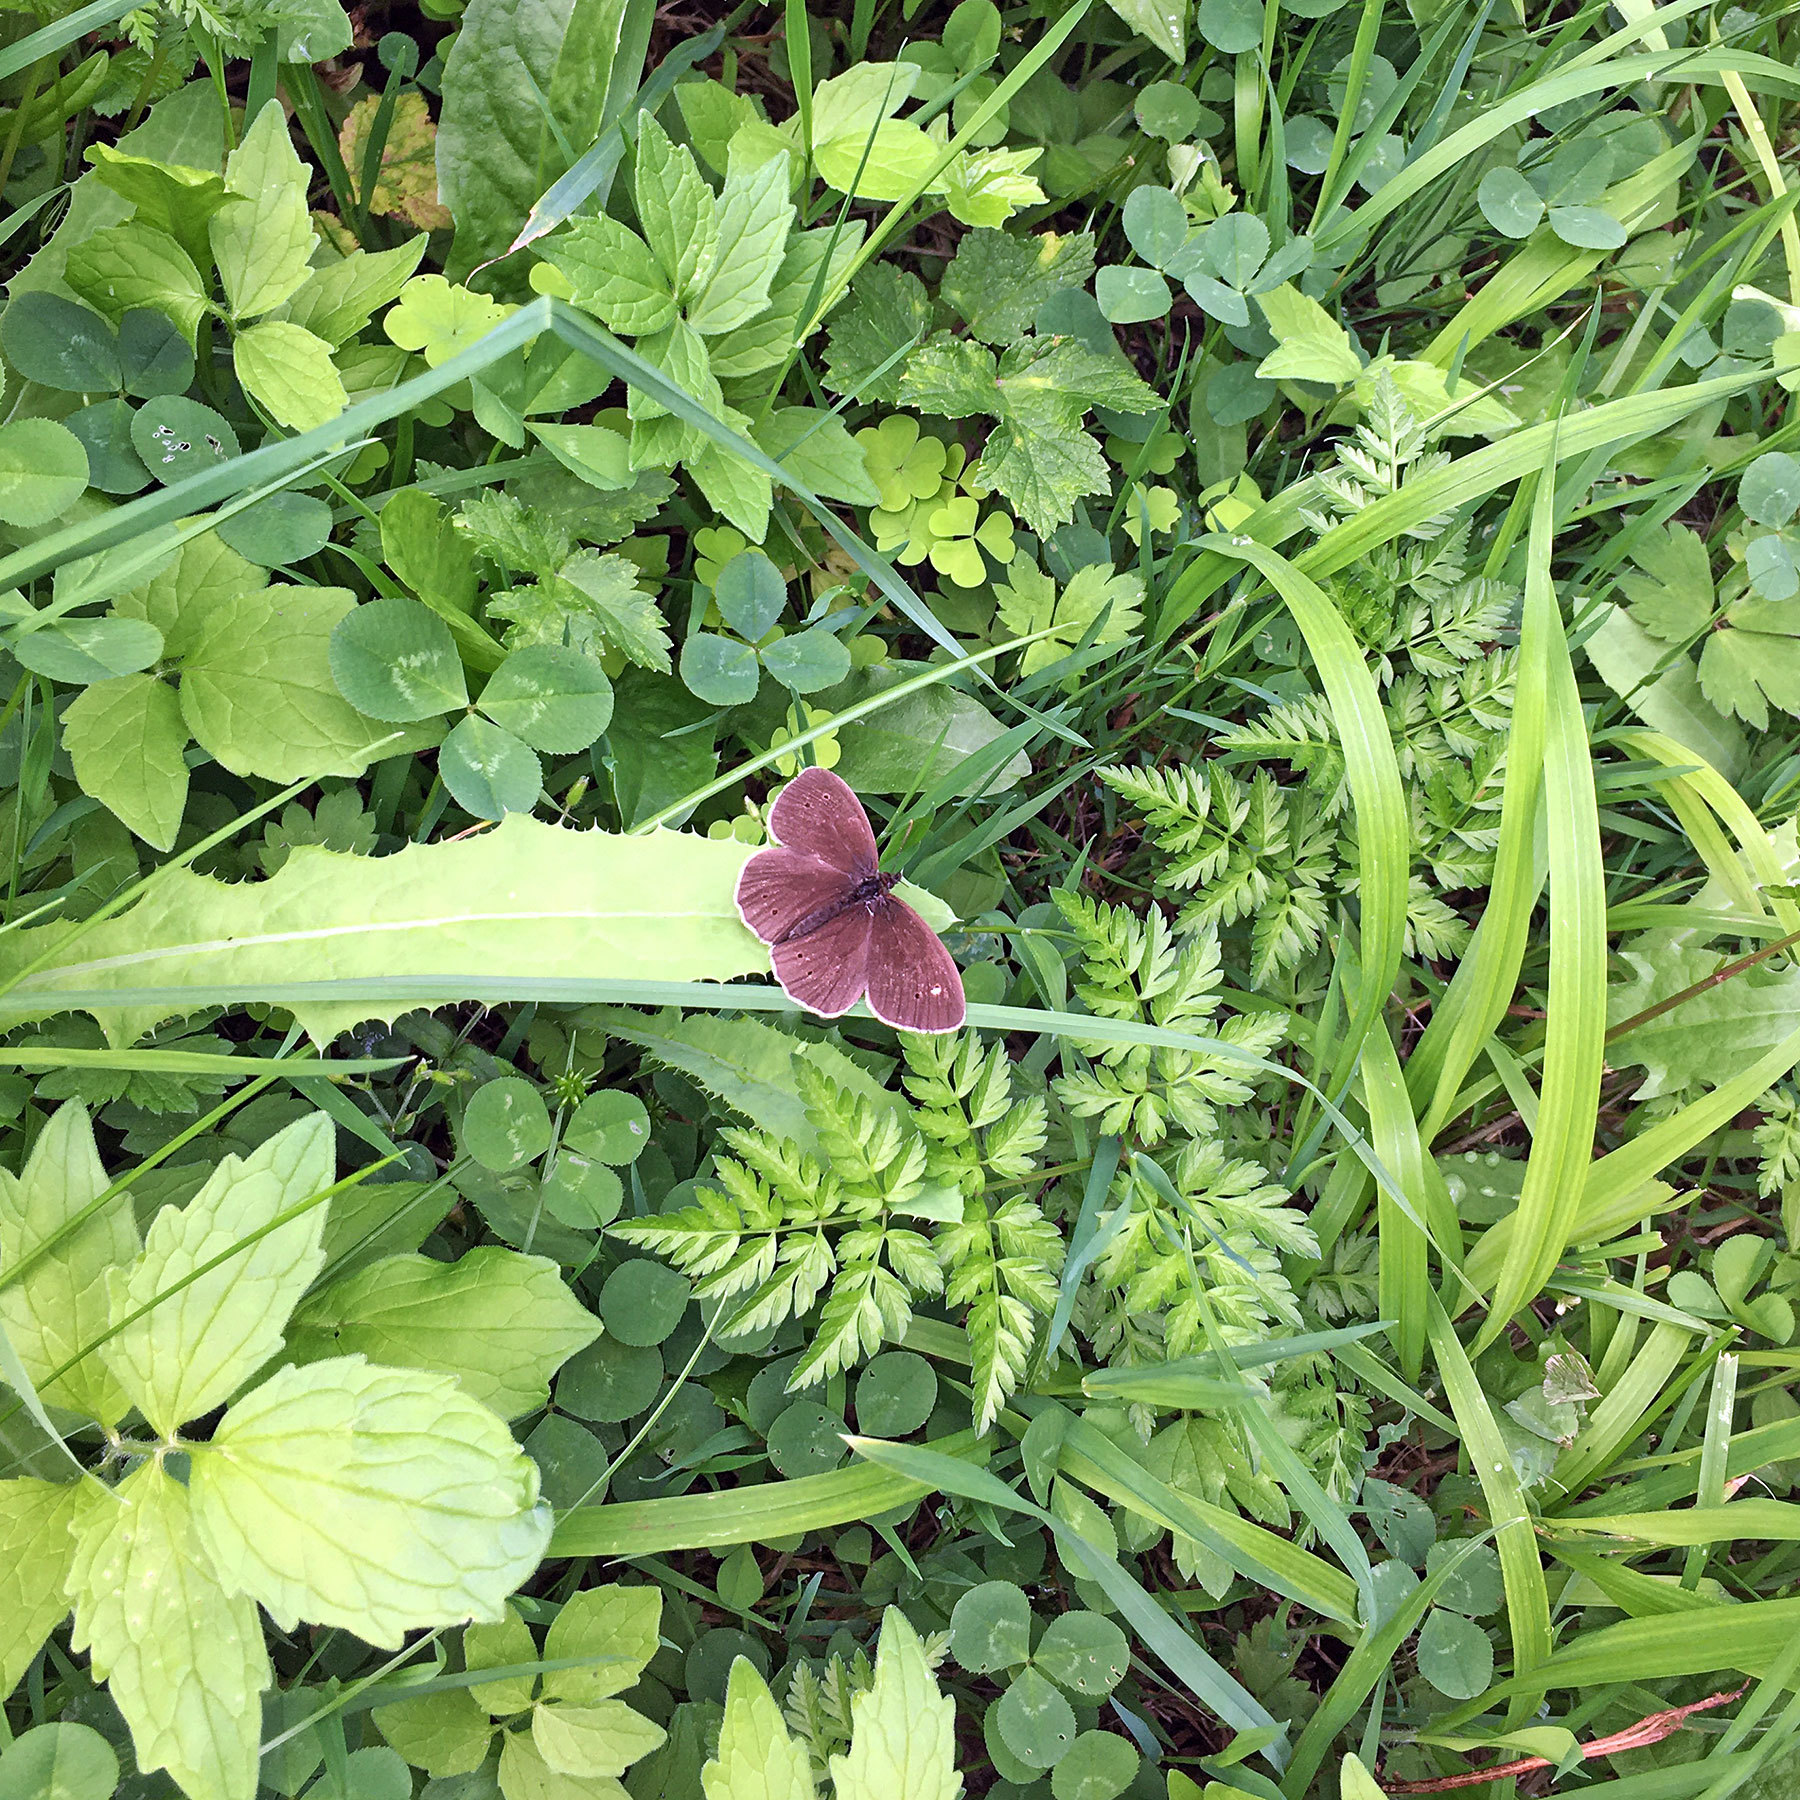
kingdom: Animalia
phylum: Arthropoda
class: Insecta
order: Lepidoptera
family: Nymphalidae
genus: Aphantopus
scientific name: Aphantopus hyperantus
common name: Ringlet
